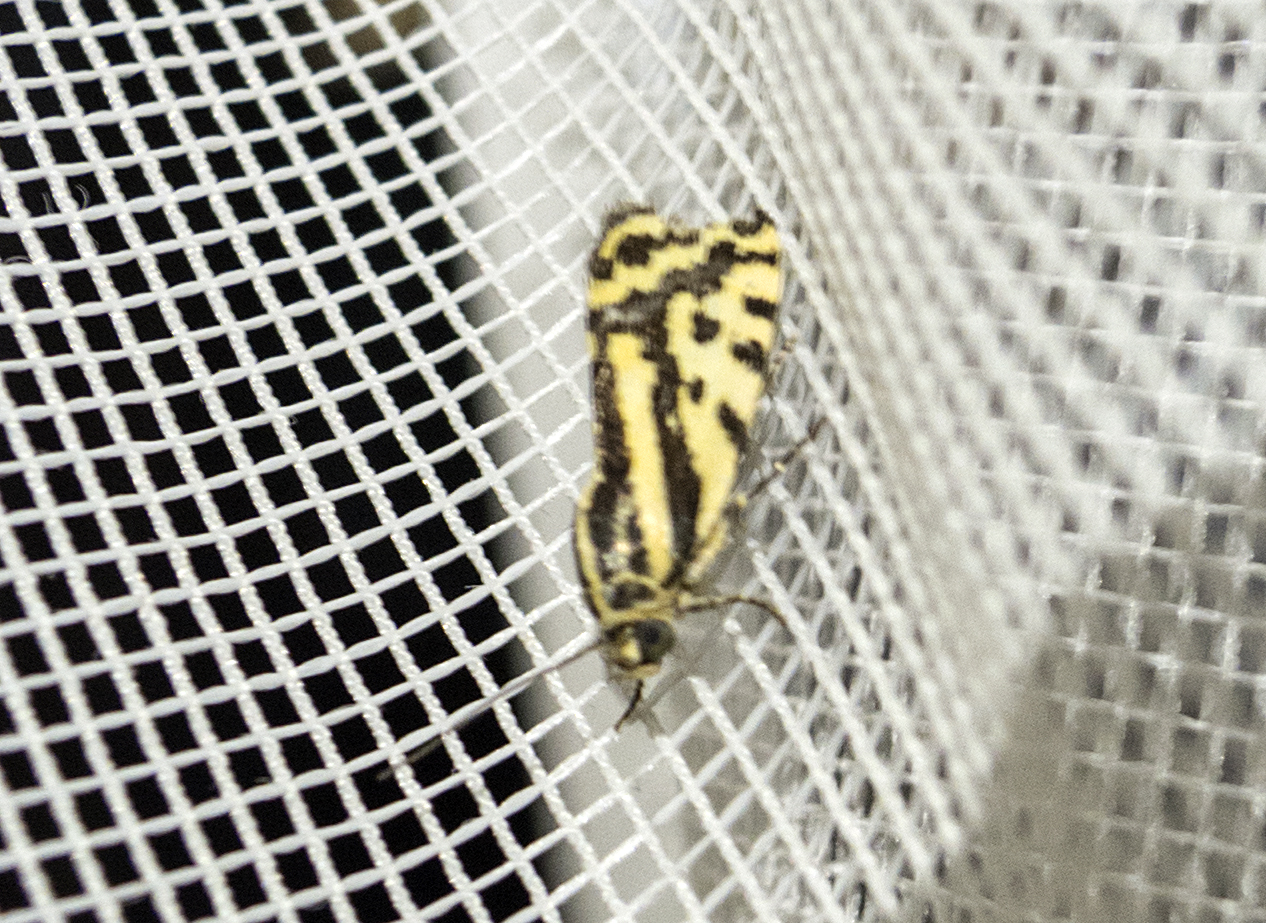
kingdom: Animalia
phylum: Arthropoda
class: Insecta
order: Lepidoptera
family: Noctuidae
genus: Acontia
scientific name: Acontia trabealis
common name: Spotted sulphur
